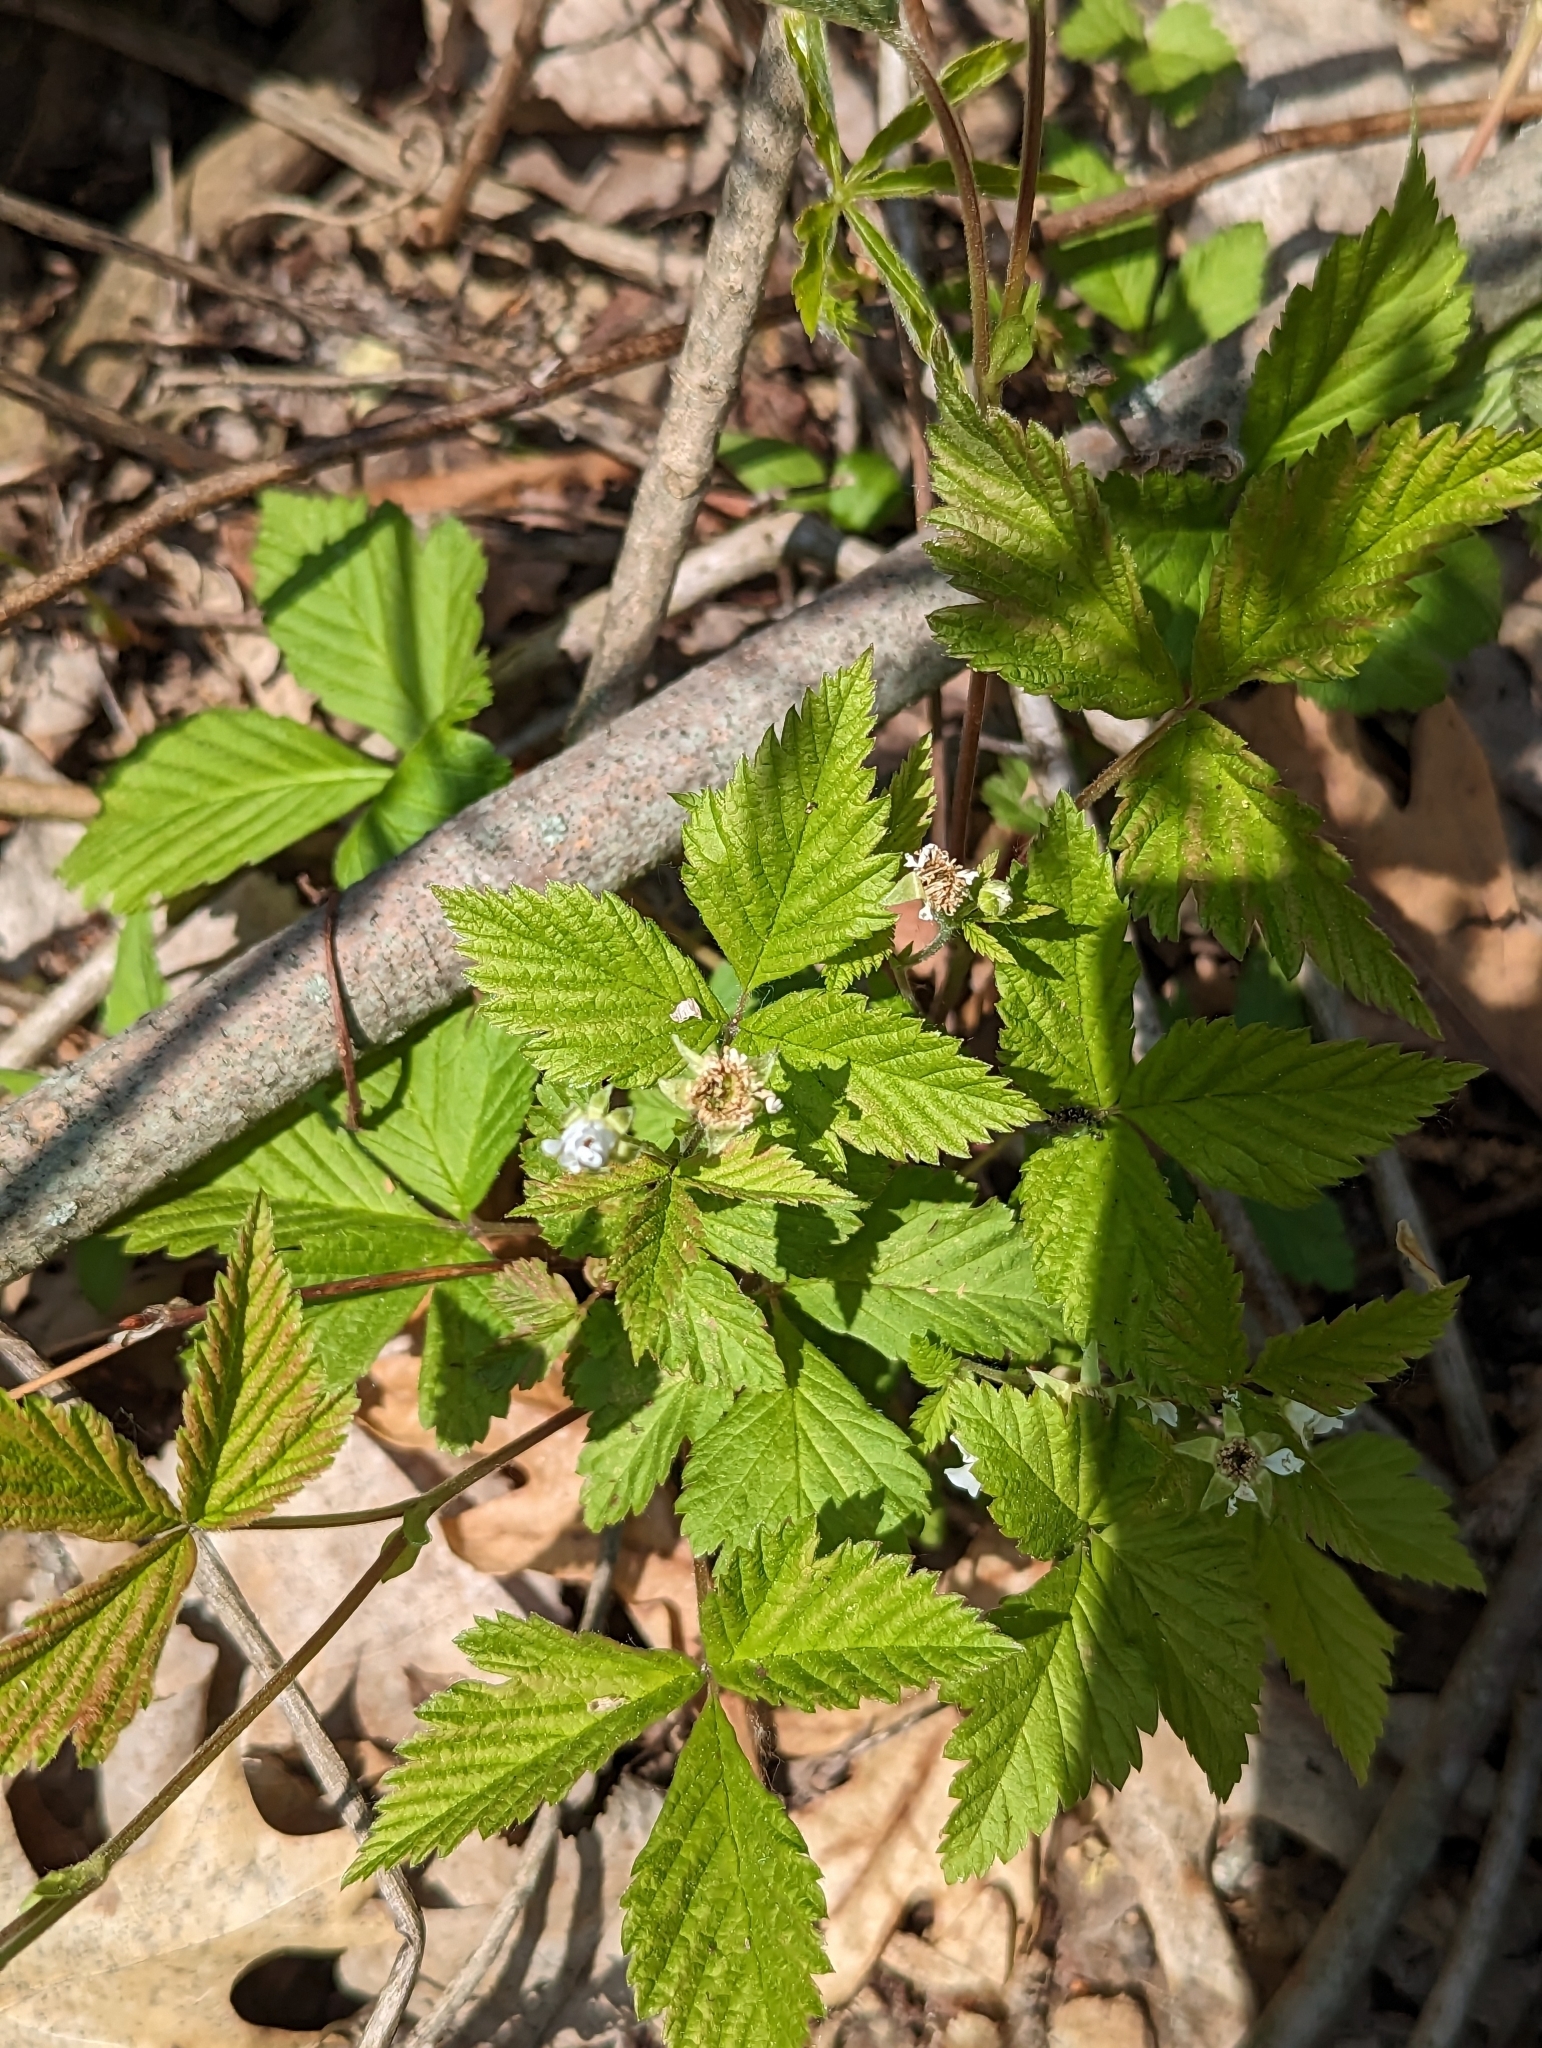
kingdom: Plantae
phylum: Tracheophyta
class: Magnoliopsida
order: Rosales
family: Rosaceae
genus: Rubus
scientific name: Rubus pubescens
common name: Dwarf raspberry
